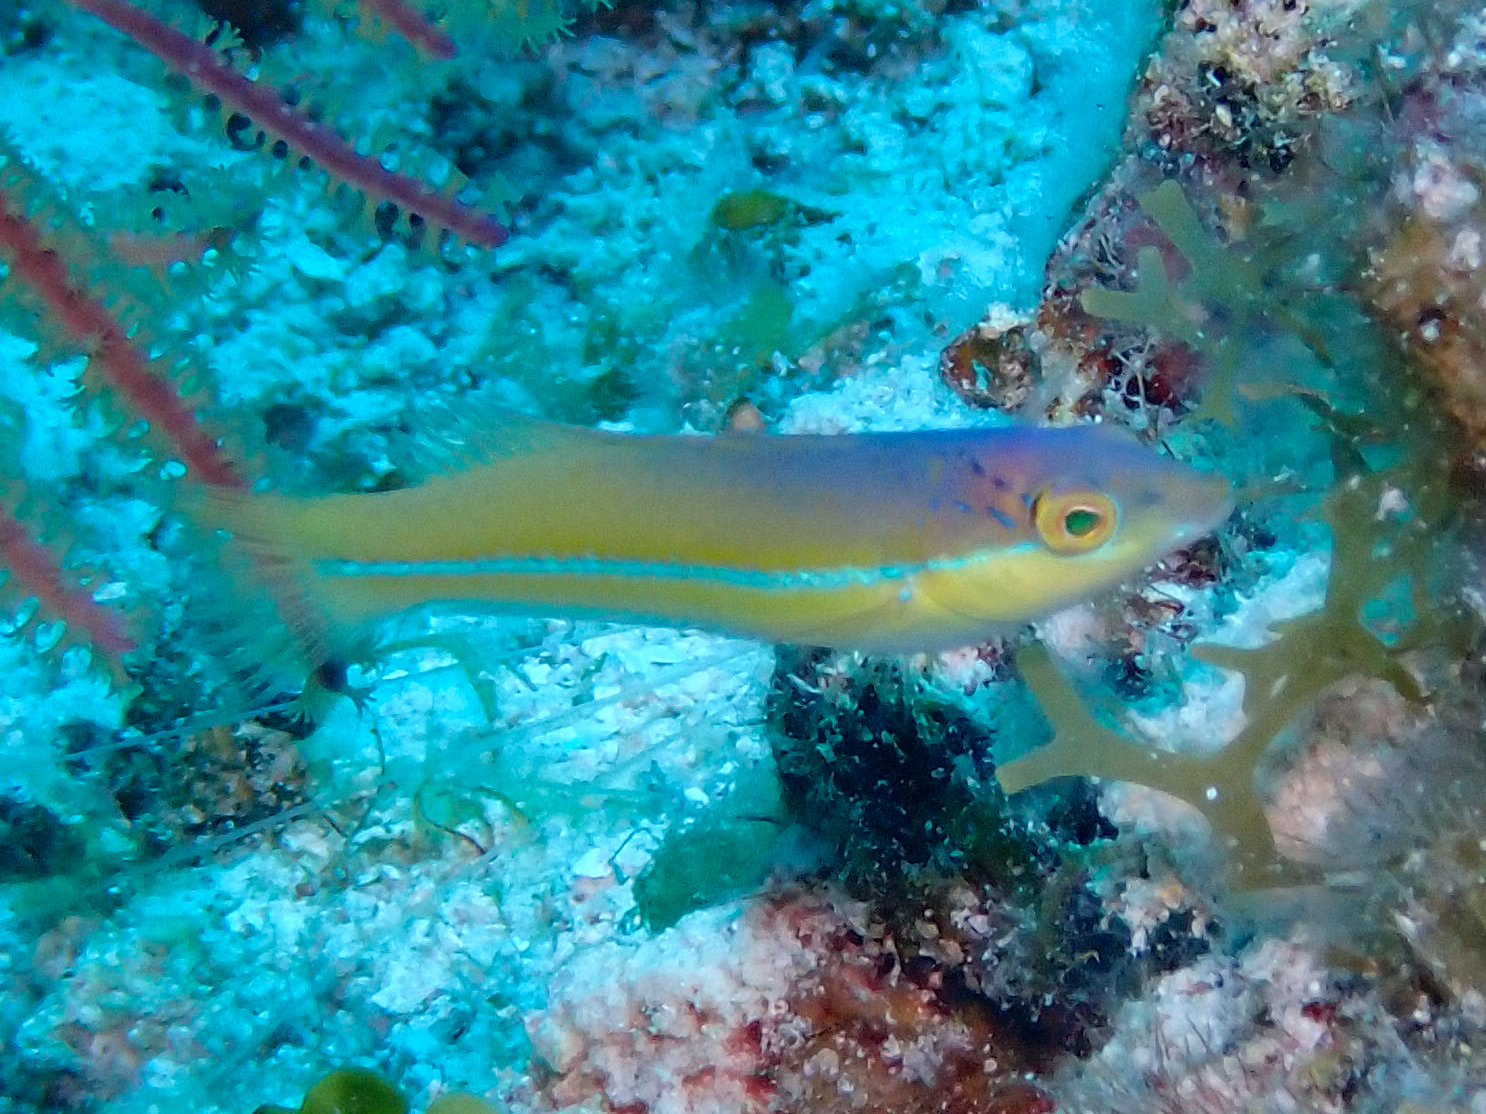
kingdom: Animalia
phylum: Chordata
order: Perciformes
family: Labridae
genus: Halichoeres
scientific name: Halichoeres garnoti
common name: Yellowhead wrasse
